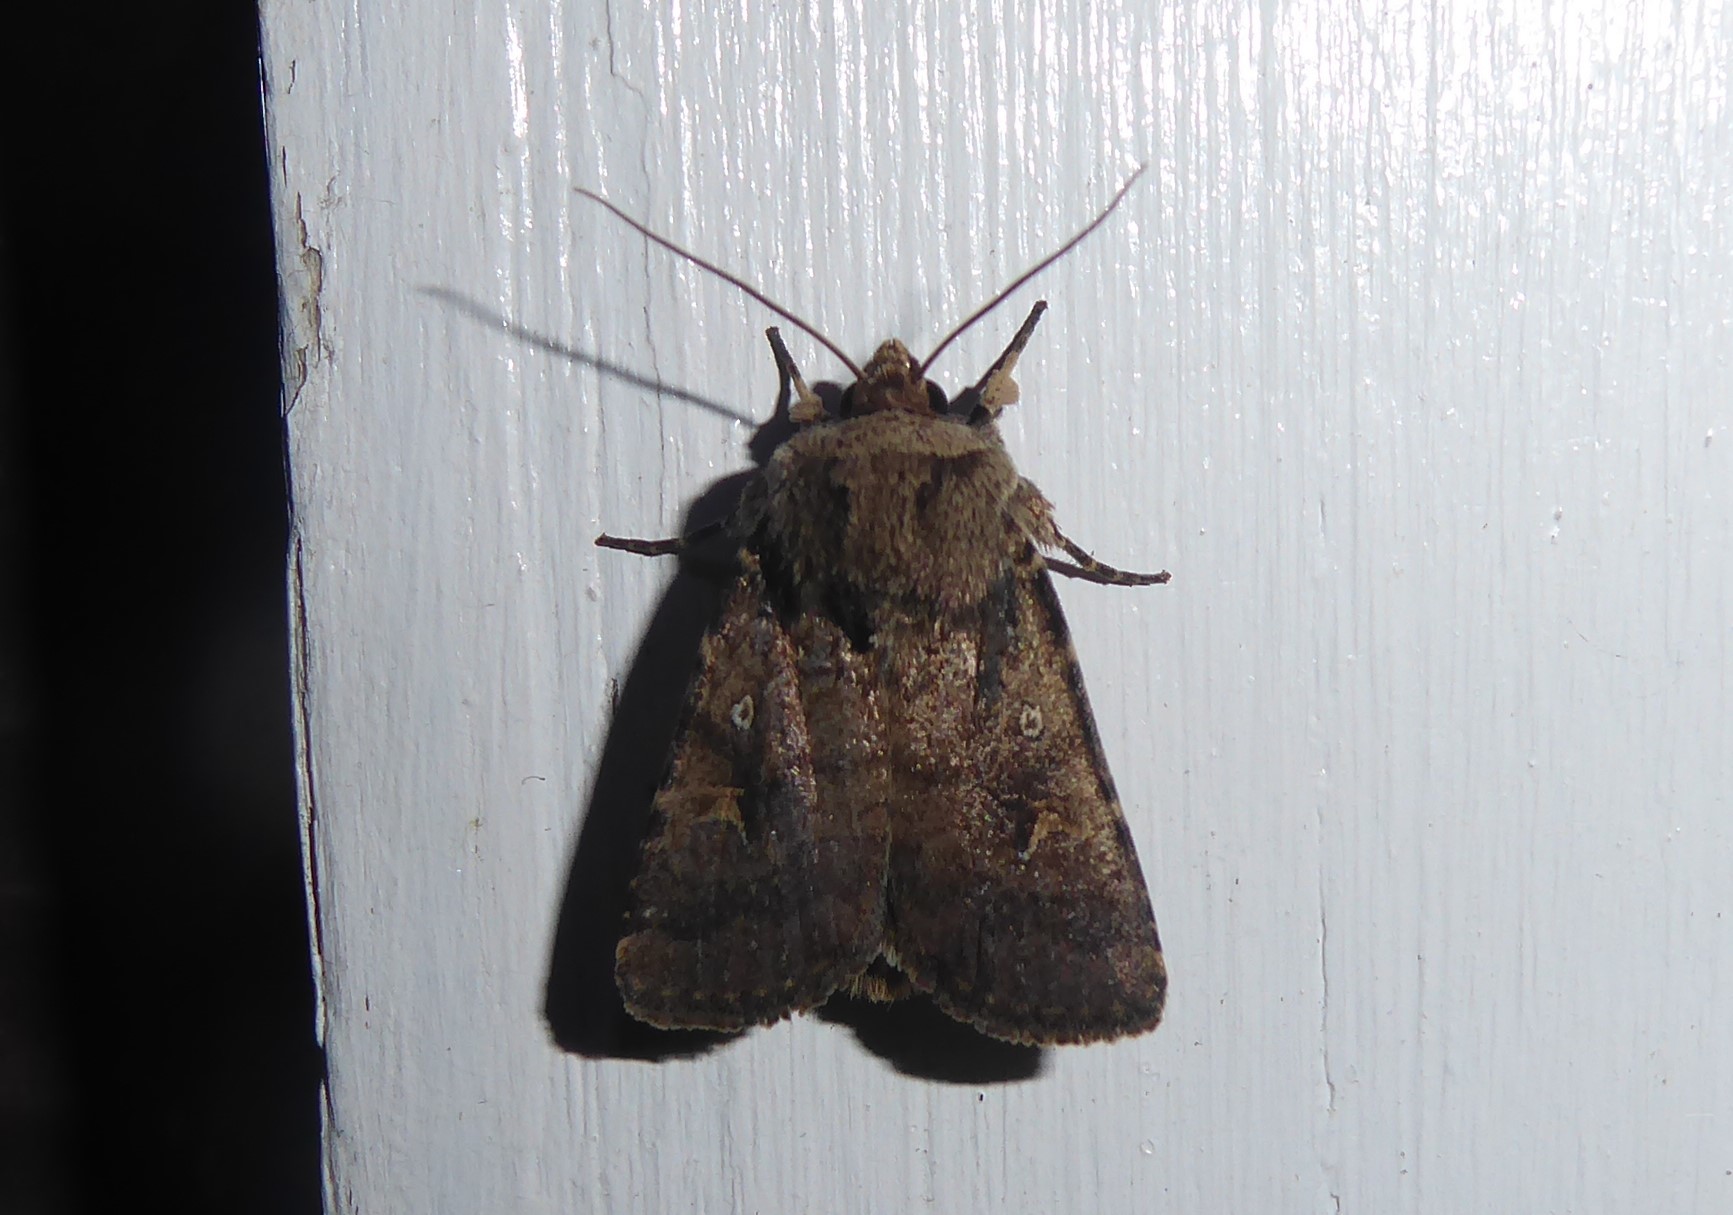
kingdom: Animalia
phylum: Arthropoda
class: Insecta
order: Lepidoptera
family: Noctuidae
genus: Proteuxoa
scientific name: Proteuxoa tetronycha
